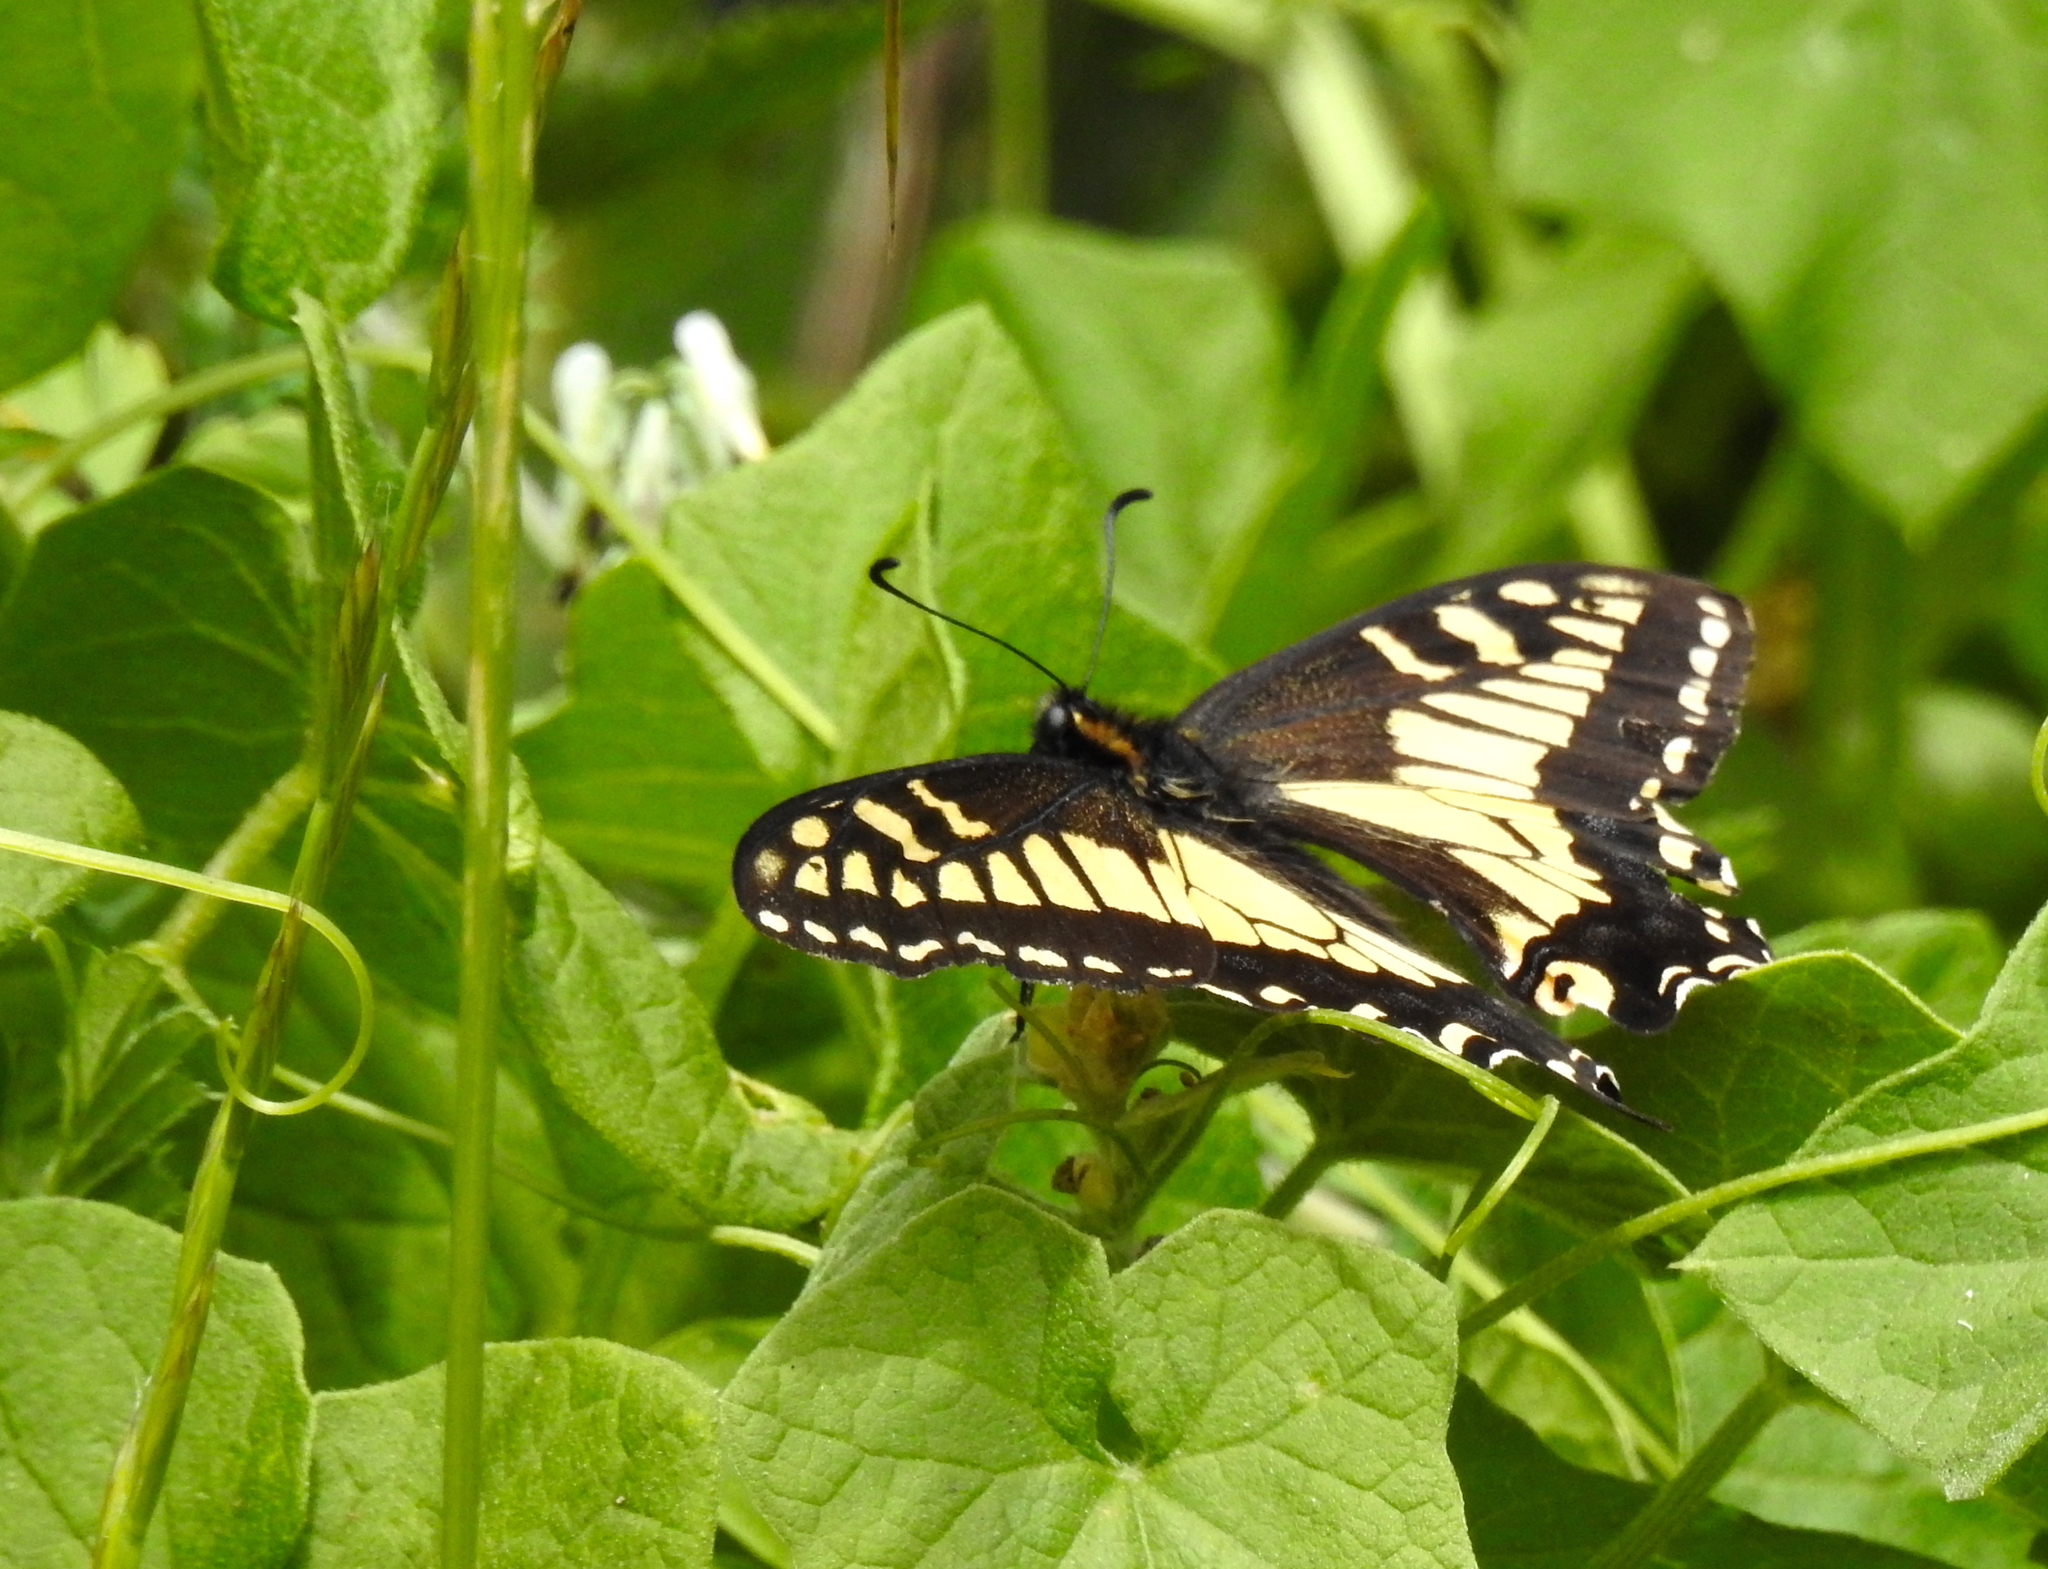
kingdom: Animalia
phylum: Arthropoda
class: Insecta
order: Lepidoptera
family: Papilionidae
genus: Papilio
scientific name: Papilio zelicaon
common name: Anise swallowtail
